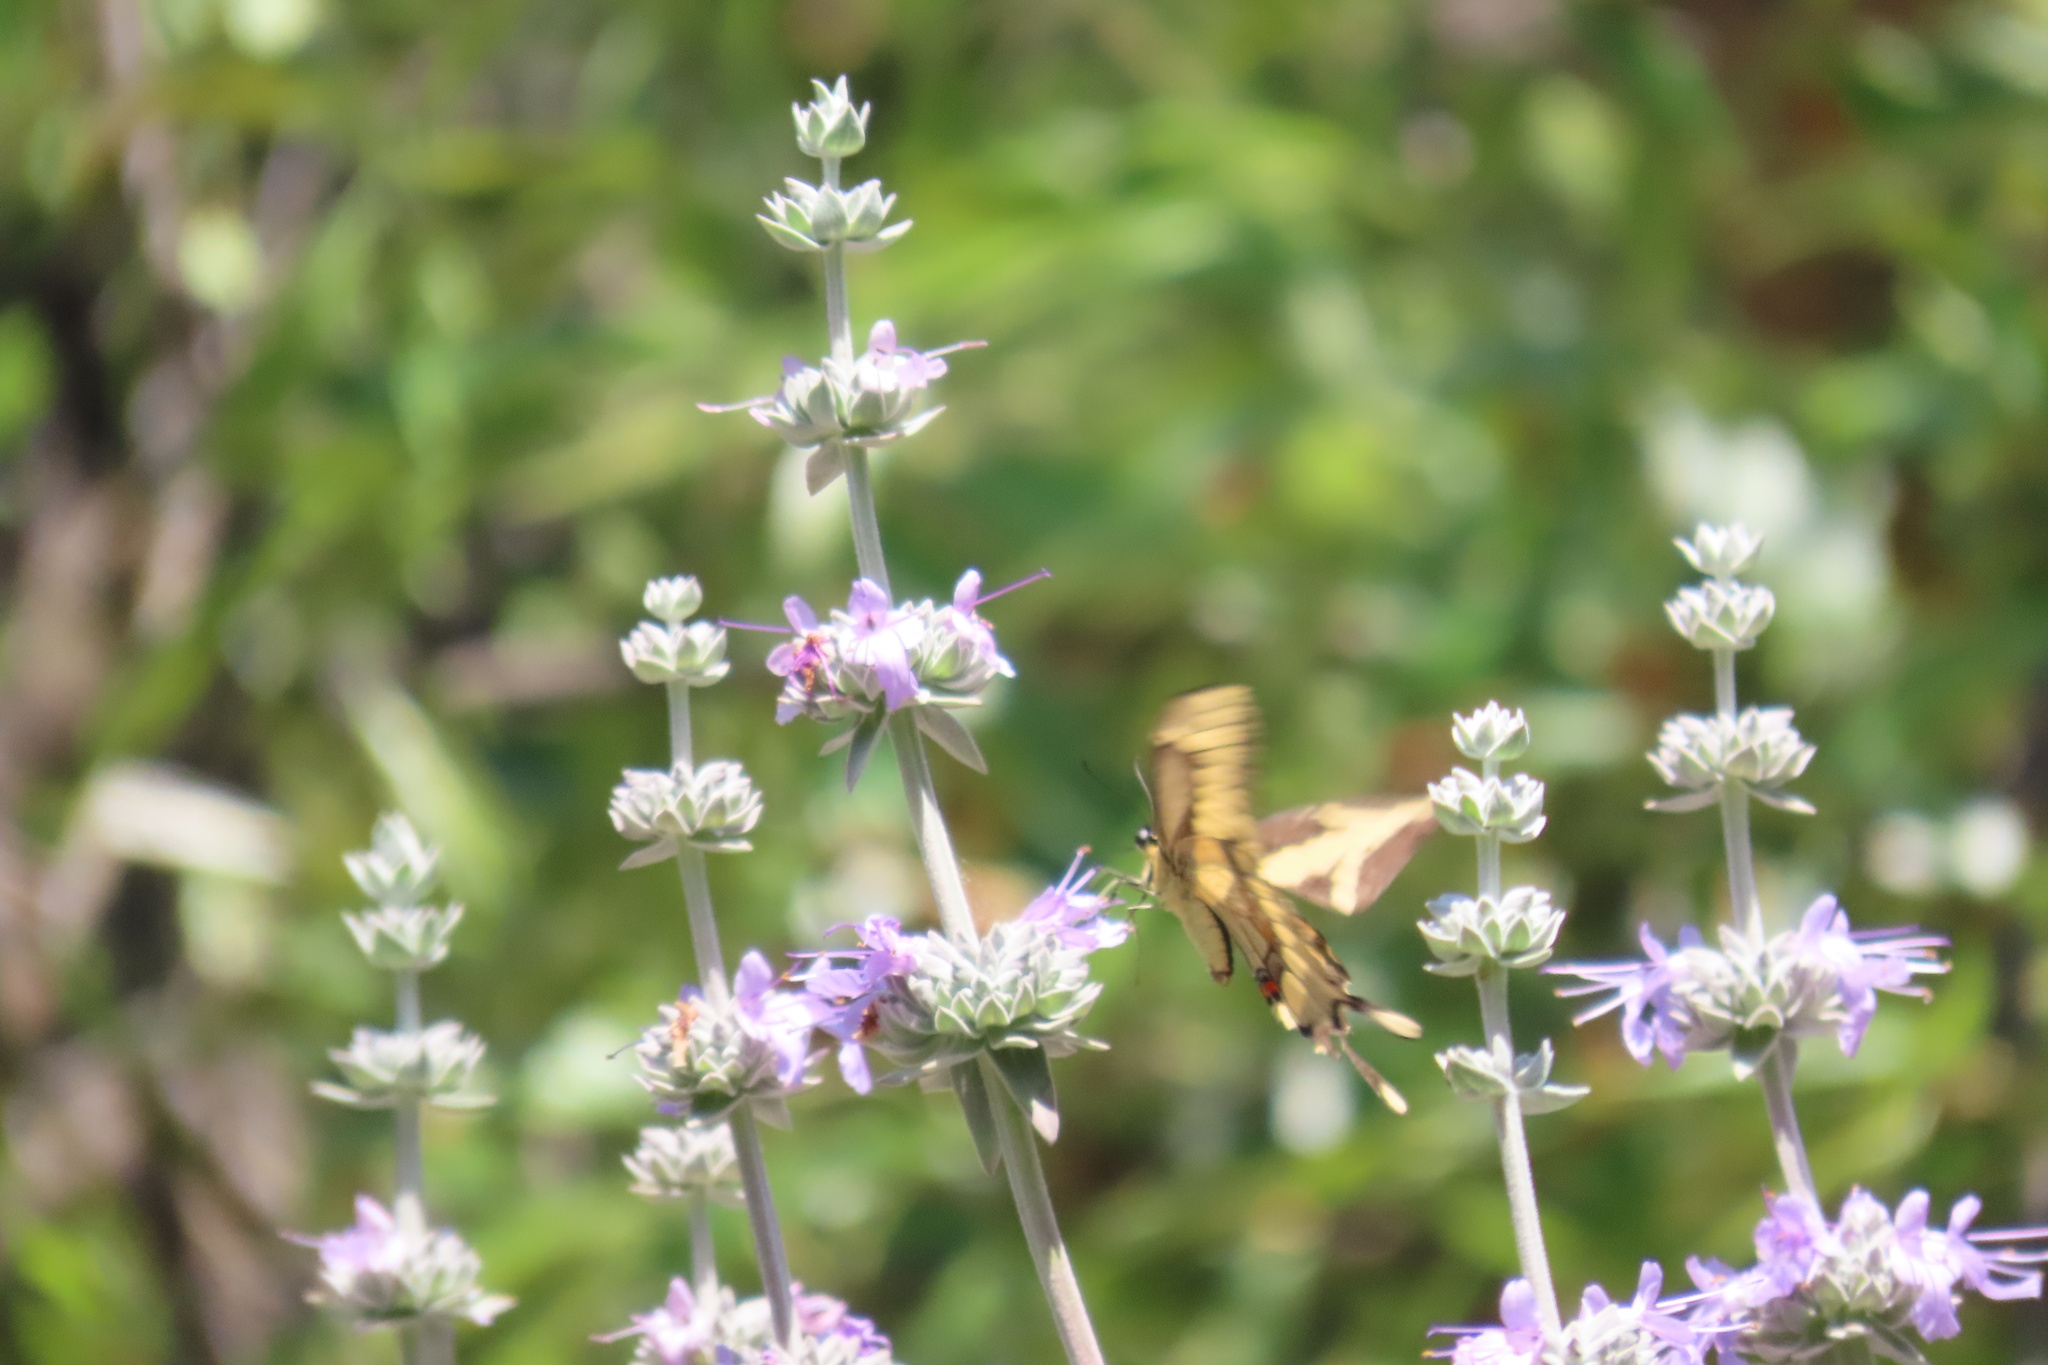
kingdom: Animalia
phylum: Arthropoda
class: Insecta
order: Lepidoptera
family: Papilionidae
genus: Papilio
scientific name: Papilio rumiko
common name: Western giant swallowtail
